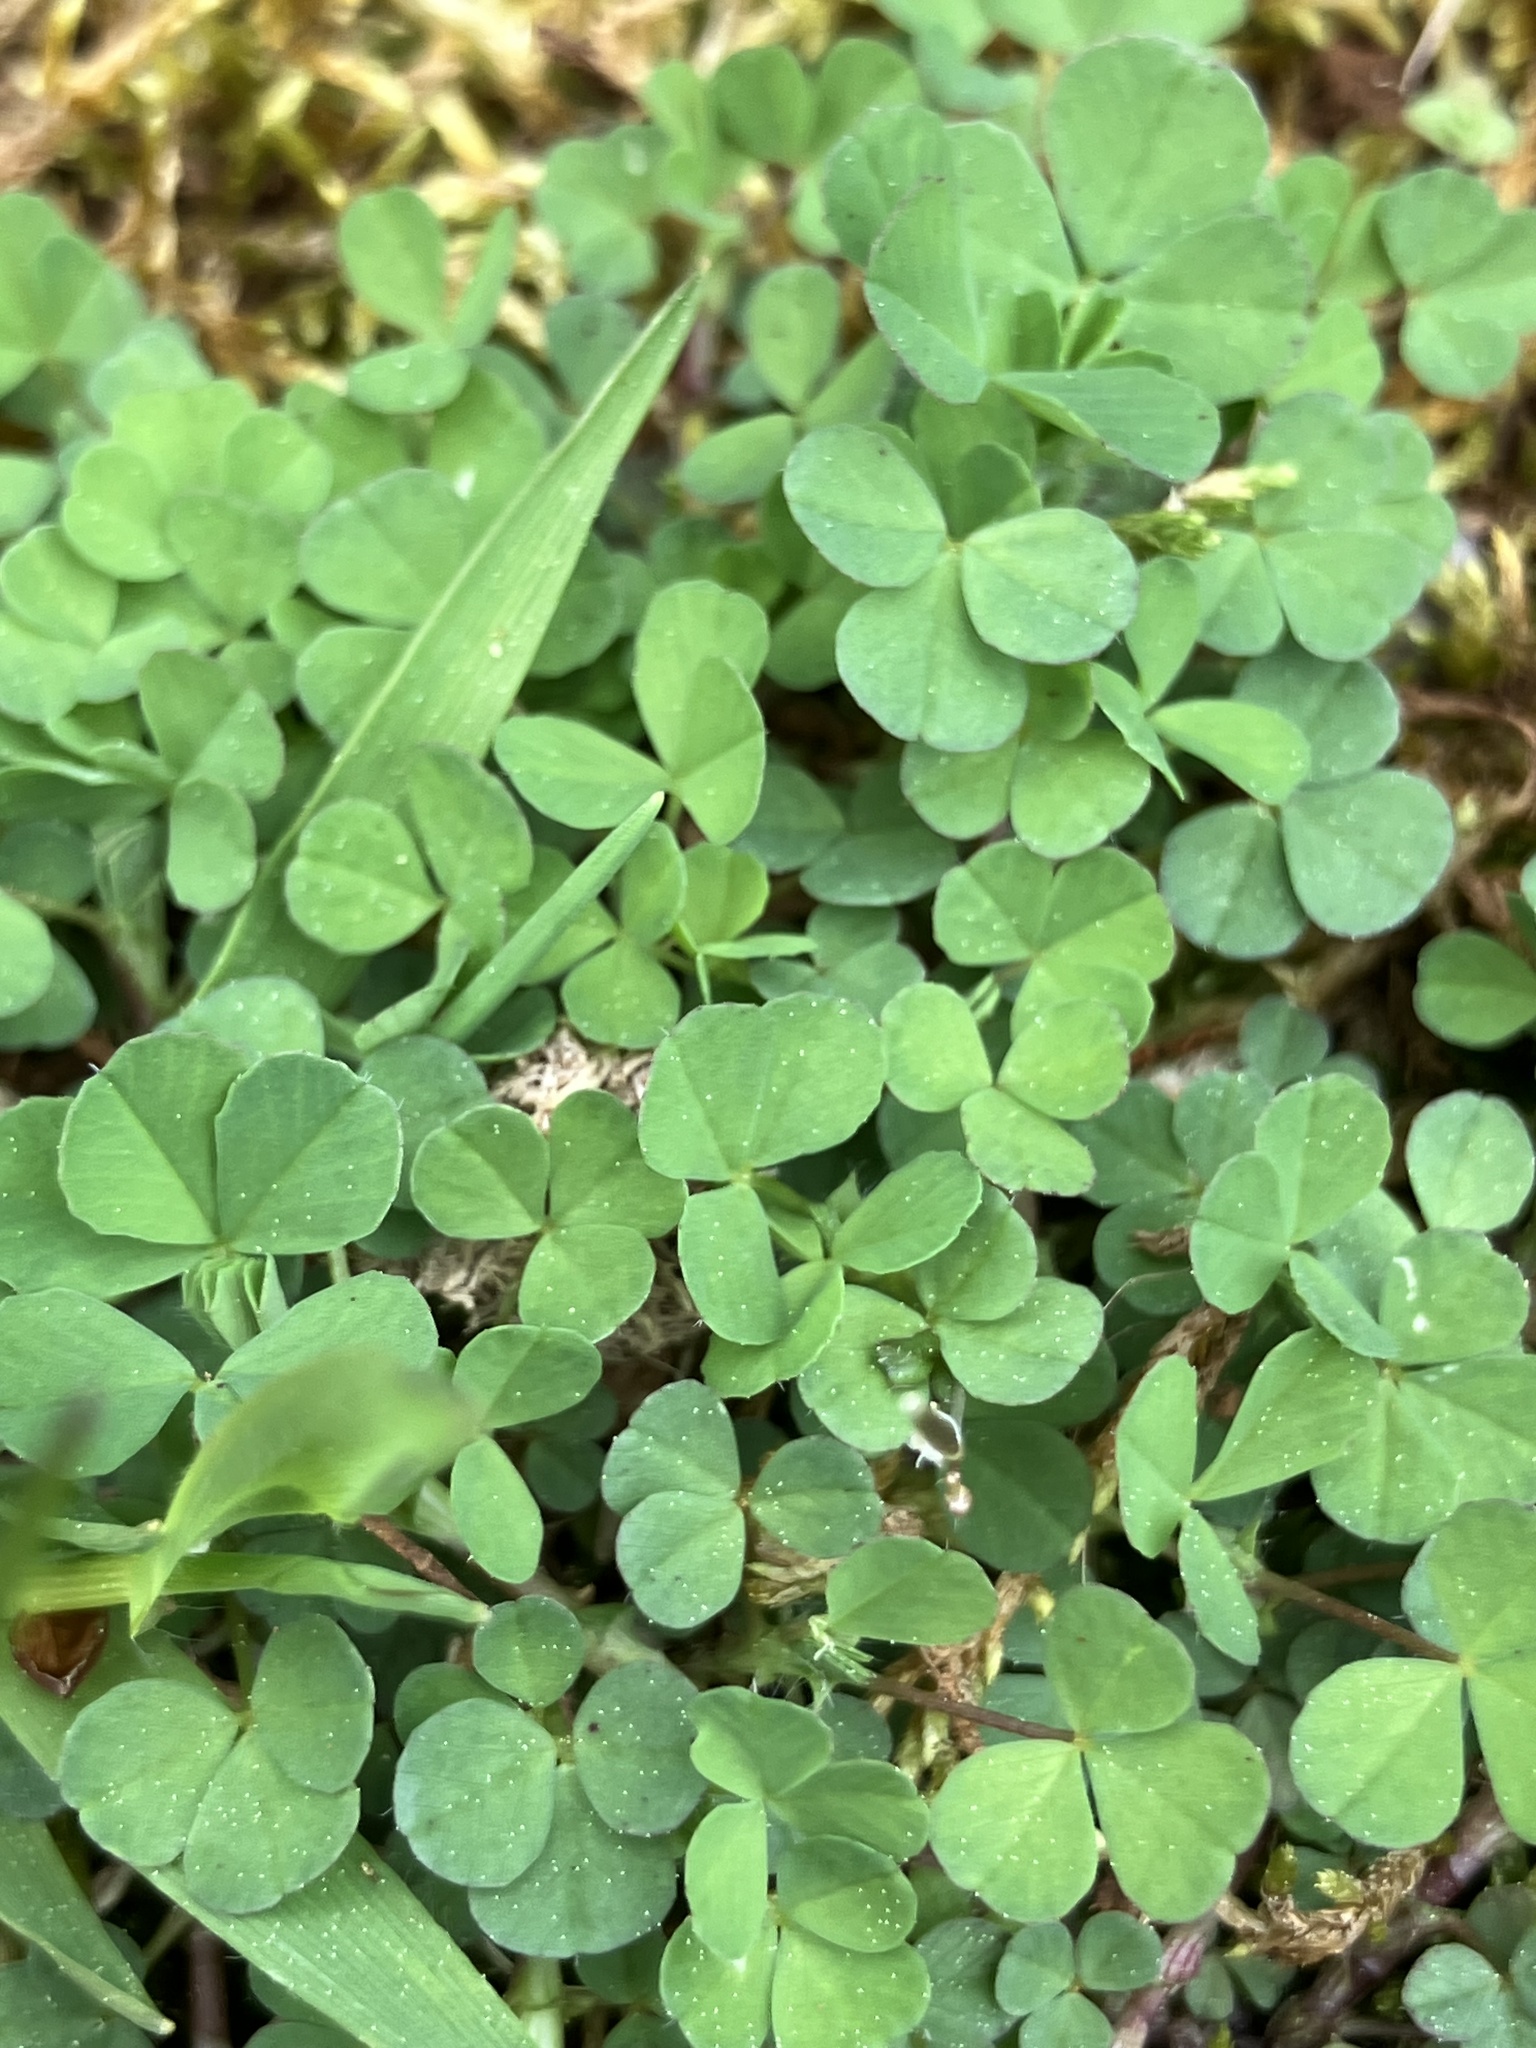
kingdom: Plantae
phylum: Tracheophyta
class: Magnoliopsida
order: Oxalidales
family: Oxalidaceae
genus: Oxalis
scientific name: Oxalis corniculata
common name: Procumbent yellow-sorrel
